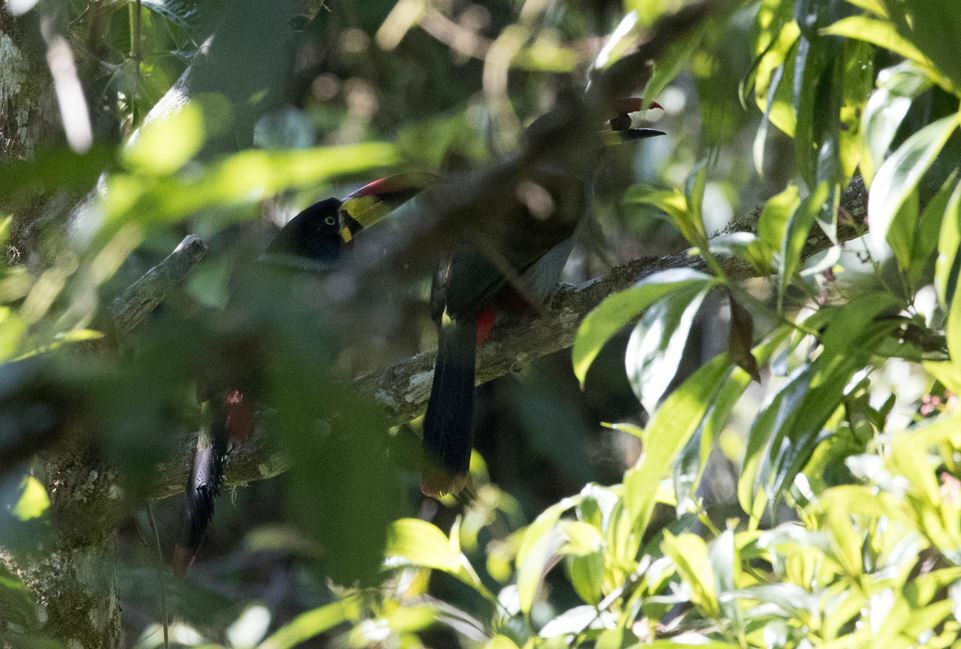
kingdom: Animalia
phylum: Chordata
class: Aves
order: Piciformes
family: Ramphastidae
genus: Andigena
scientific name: Andigena hypoglauca
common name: Grey-breasted mountain toucan
